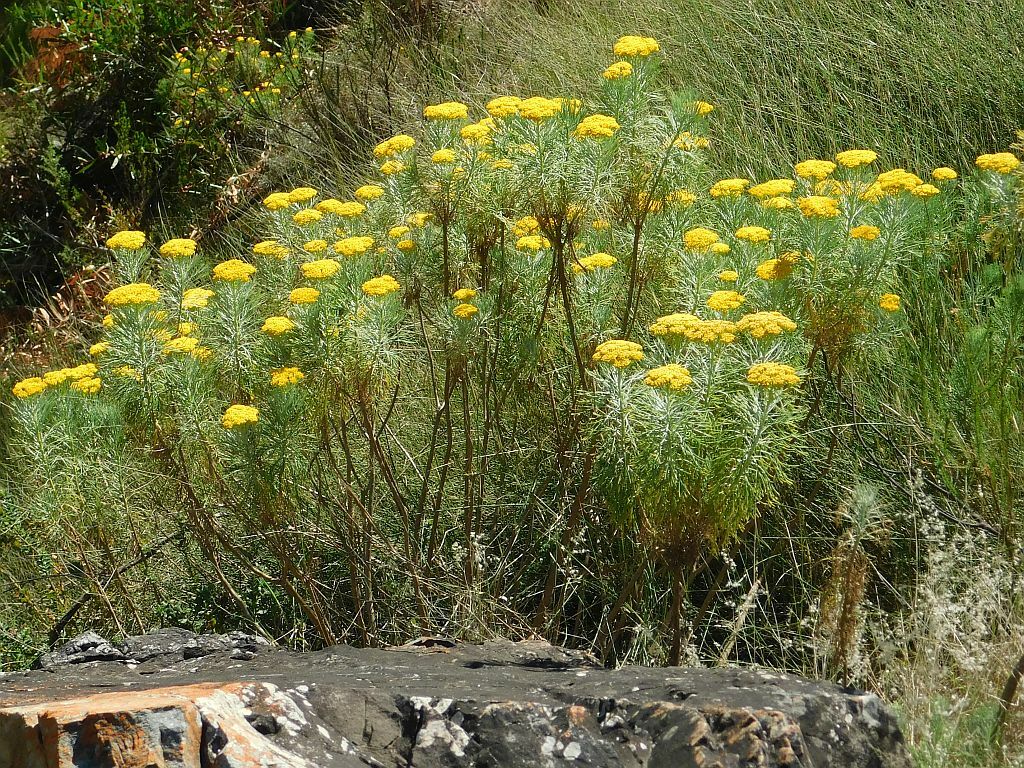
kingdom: Plantae
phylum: Tracheophyta
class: Magnoliopsida
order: Asterales
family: Asteraceae
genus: Hymenolepis
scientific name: Hymenolepis crithmifolia
